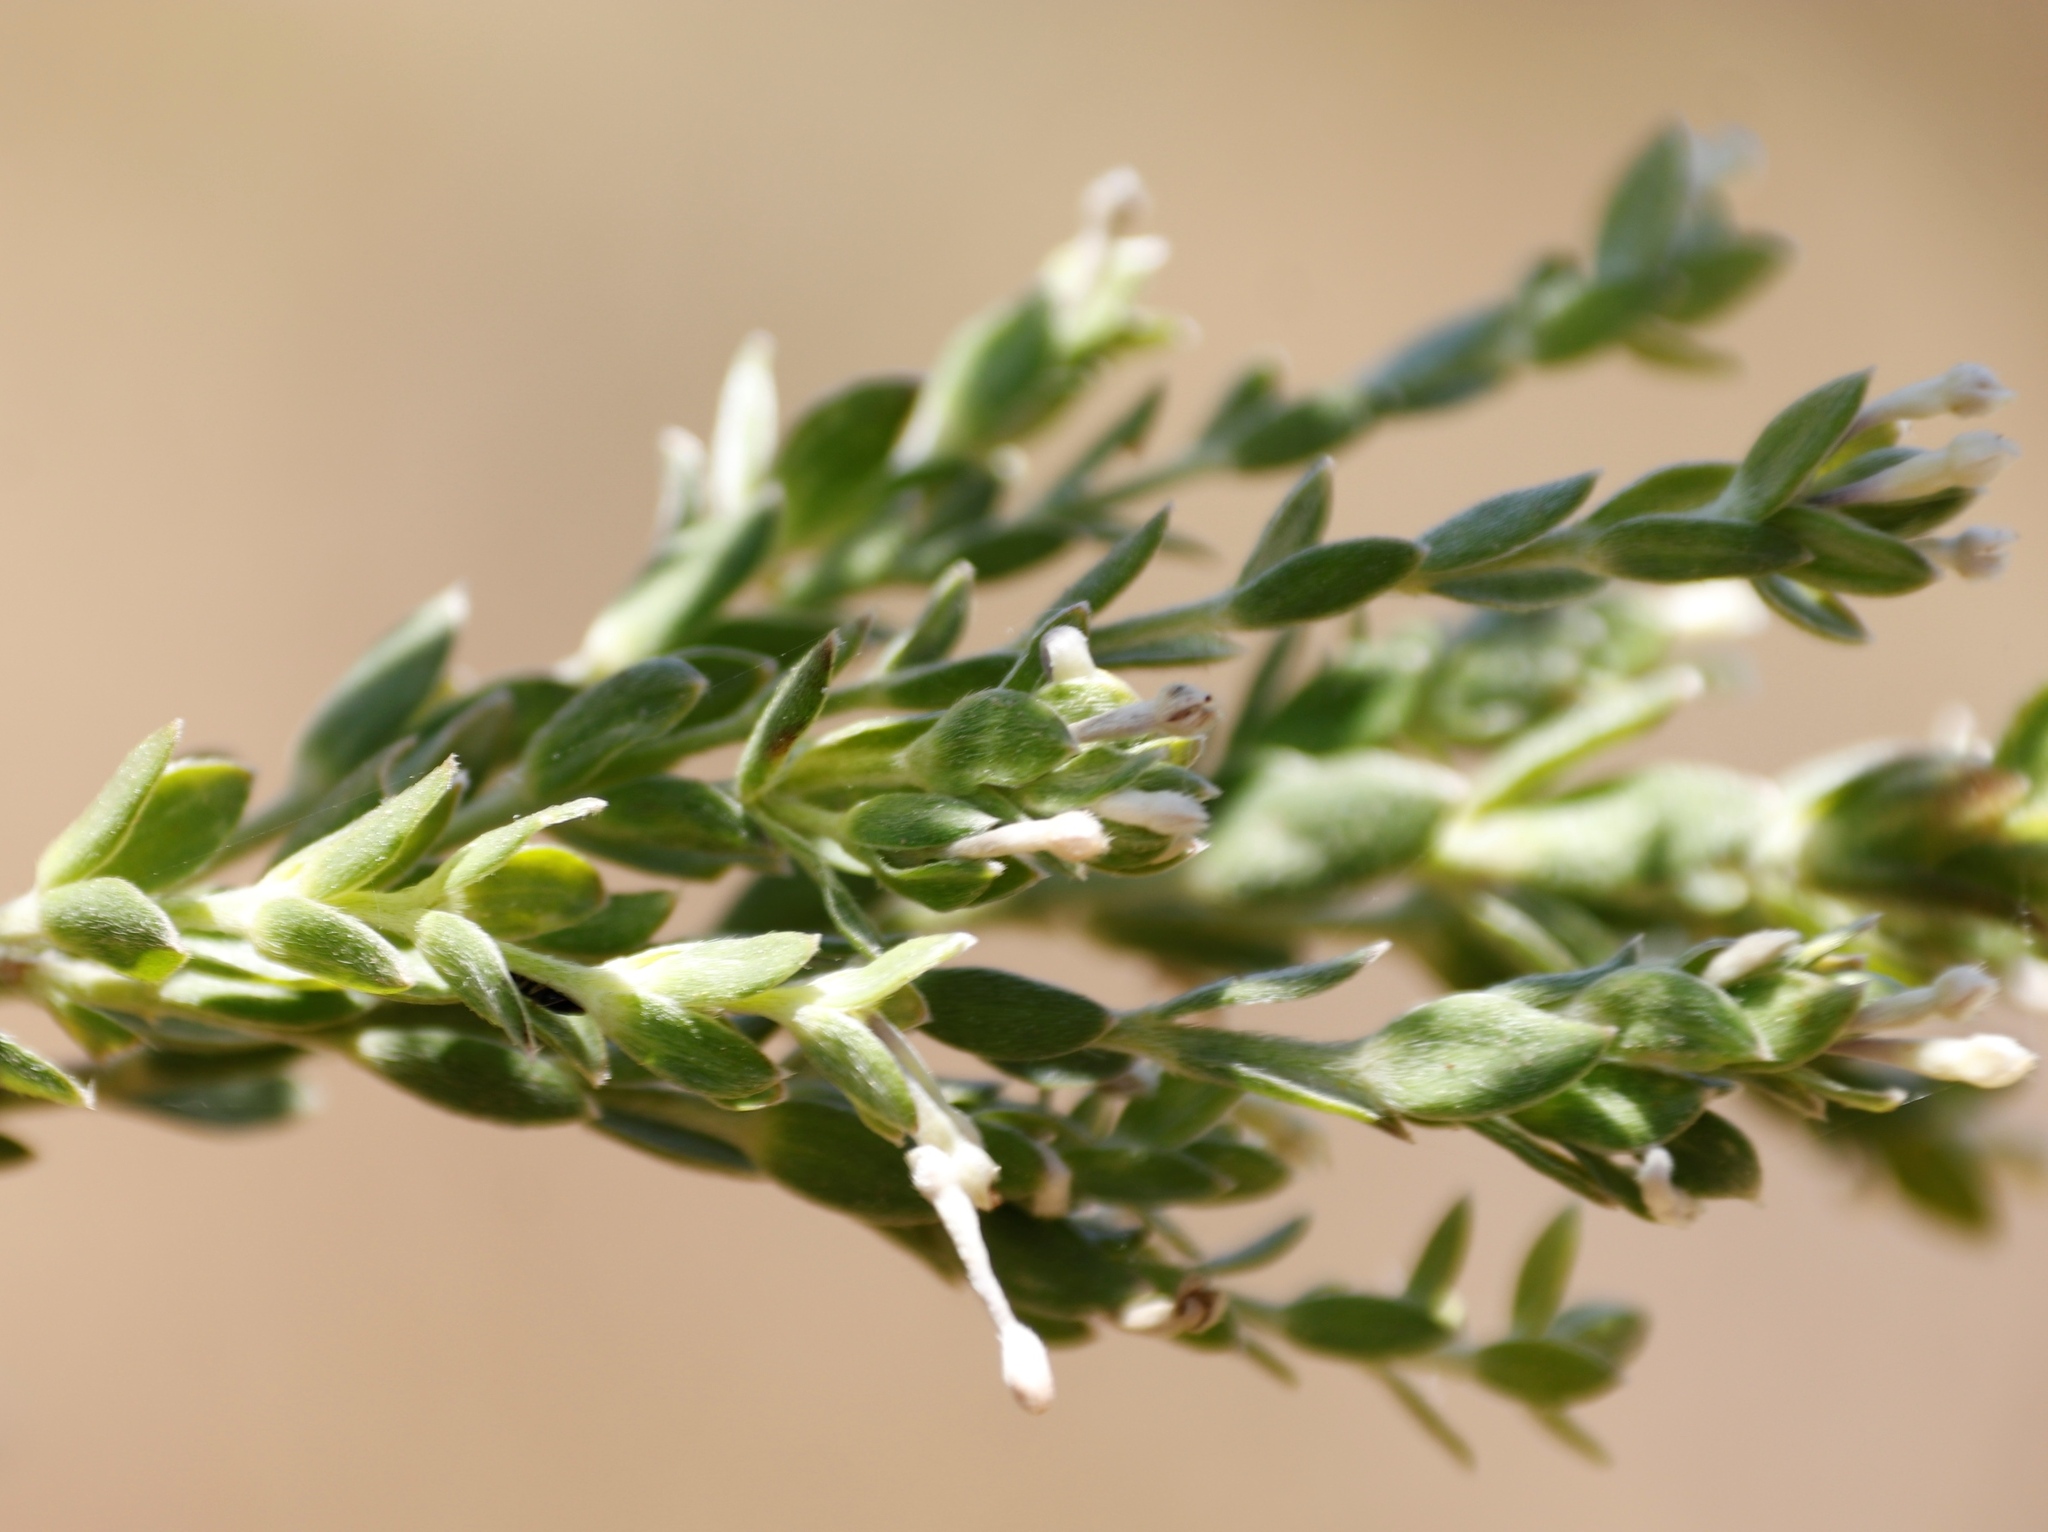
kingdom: Plantae
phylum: Tracheophyta
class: Magnoliopsida
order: Malvales
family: Thymelaeaceae
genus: Gnidia
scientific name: Gnidia sericea
